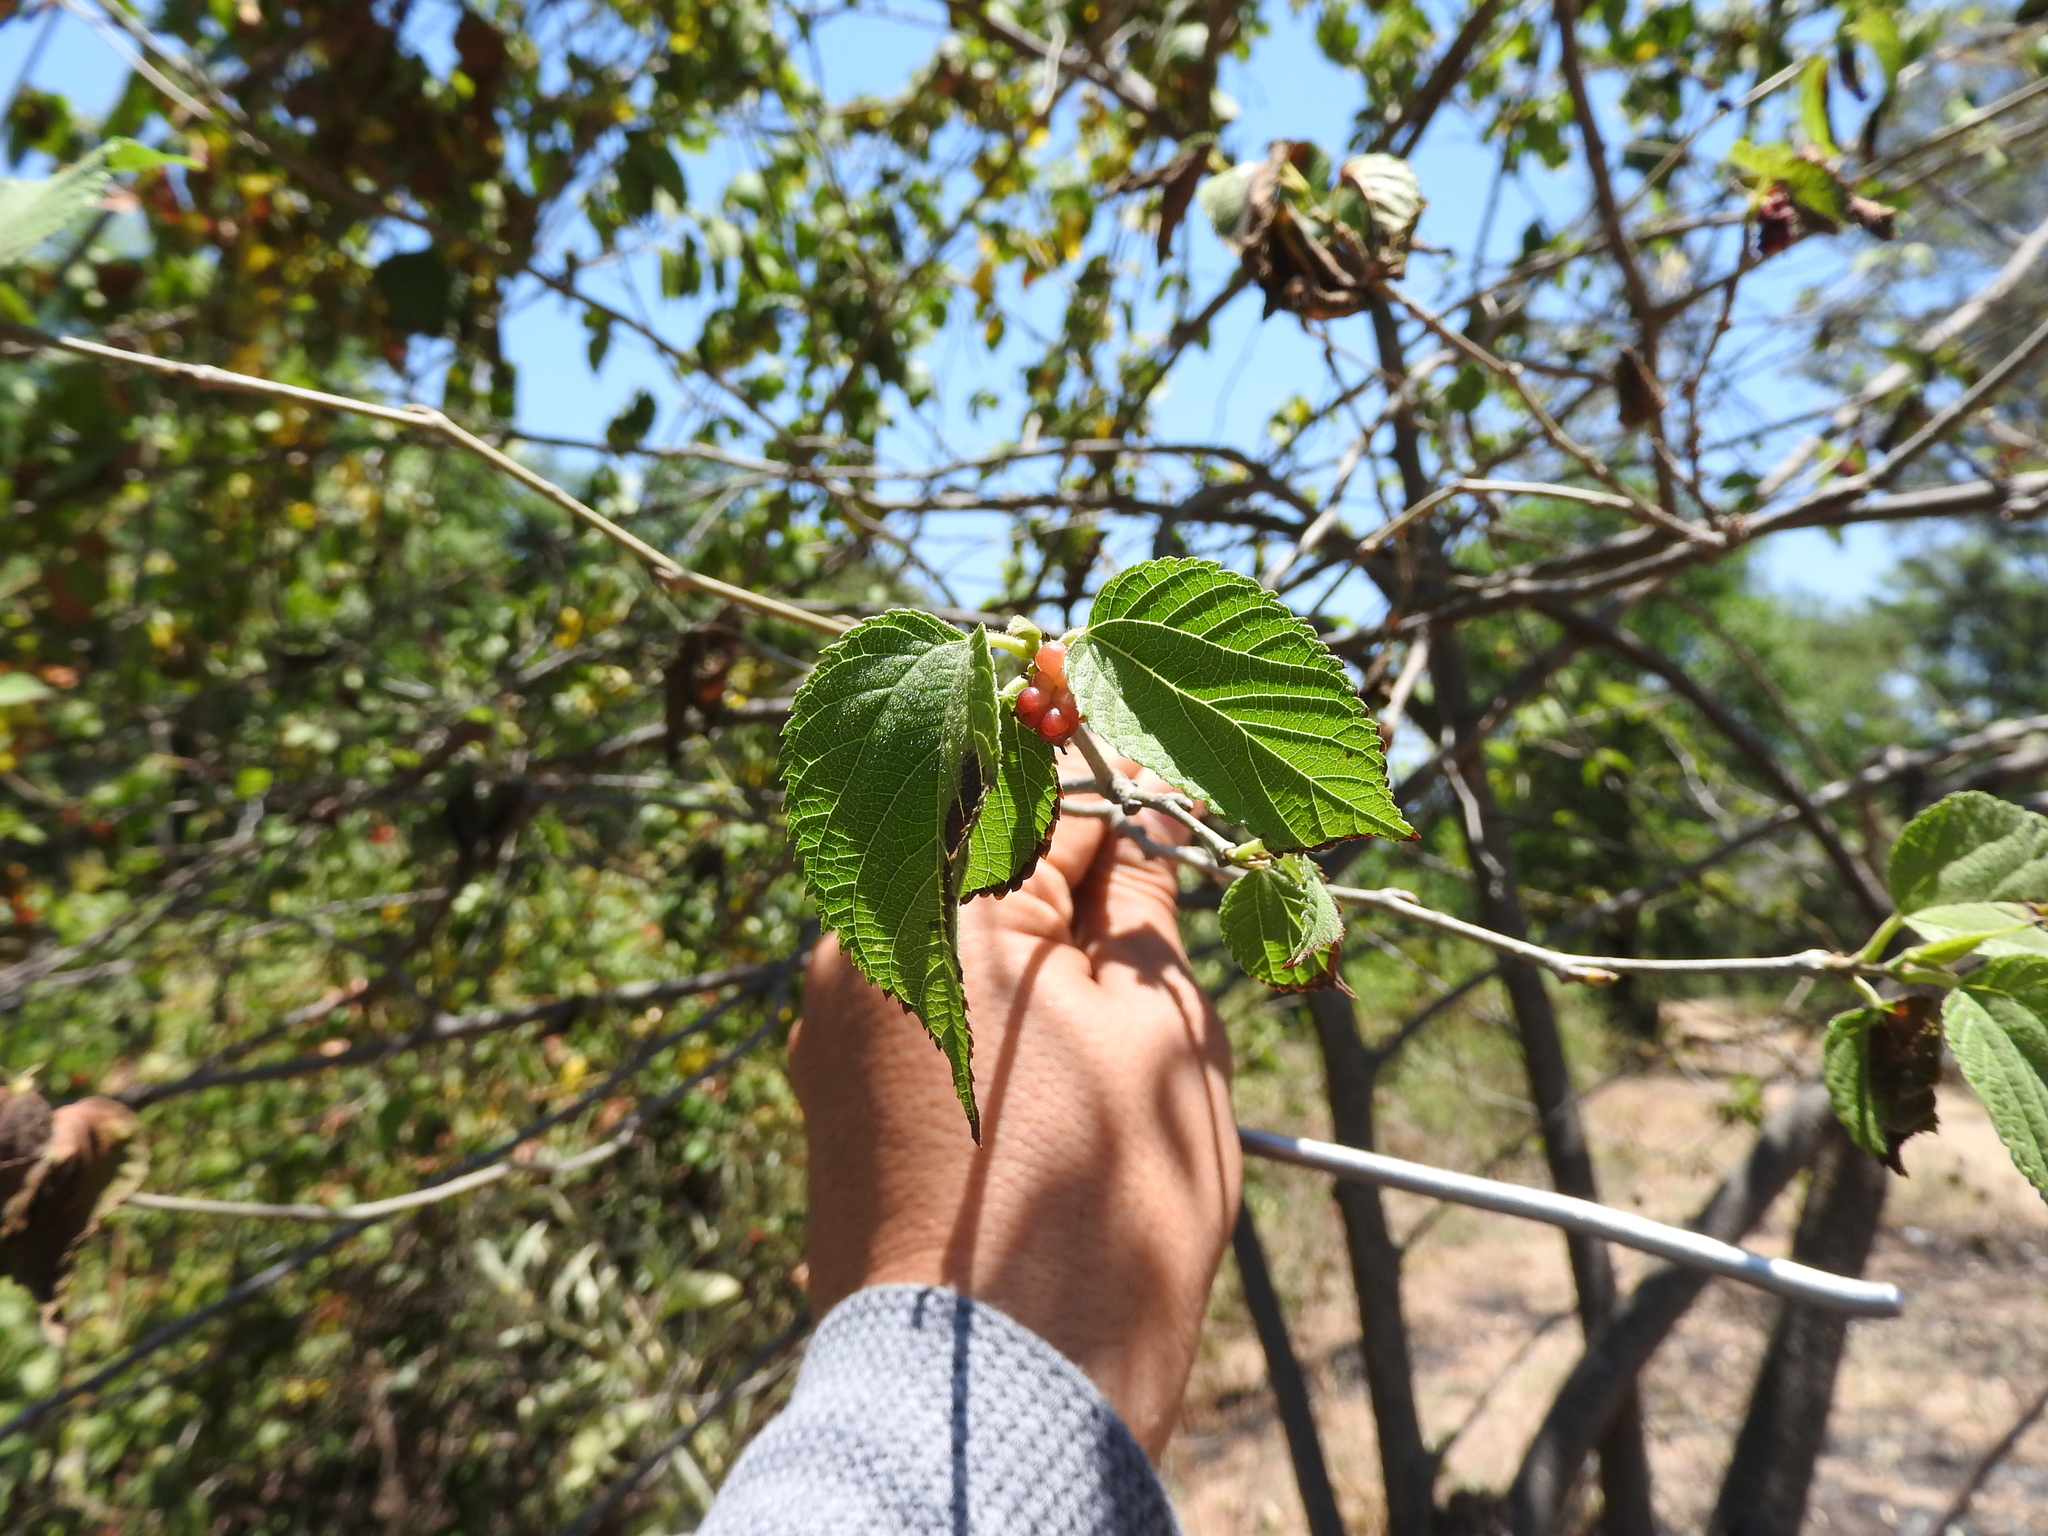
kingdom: Plantae
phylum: Tracheophyta
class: Magnoliopsida
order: Rosales
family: Moraceae
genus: Morus
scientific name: Morus celtidifolia
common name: Texas mulberry
